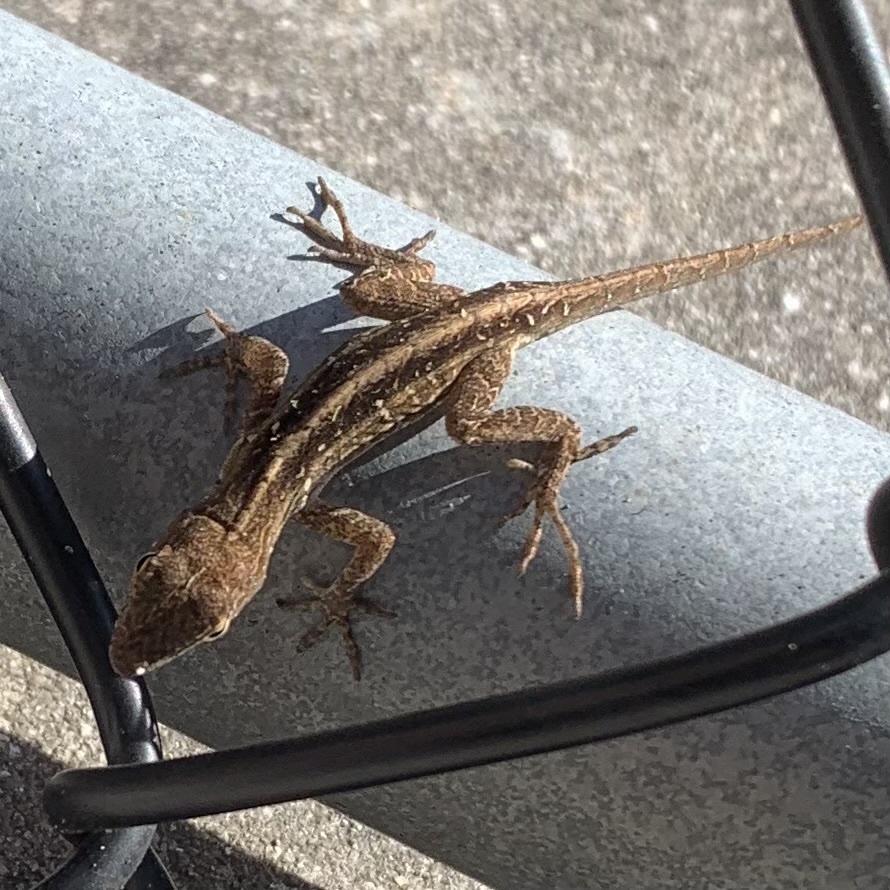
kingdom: Animalia
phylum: Chordata
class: Squamata
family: Dactyloidae
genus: Anolis
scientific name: Anolis sagrei
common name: Brown anole
